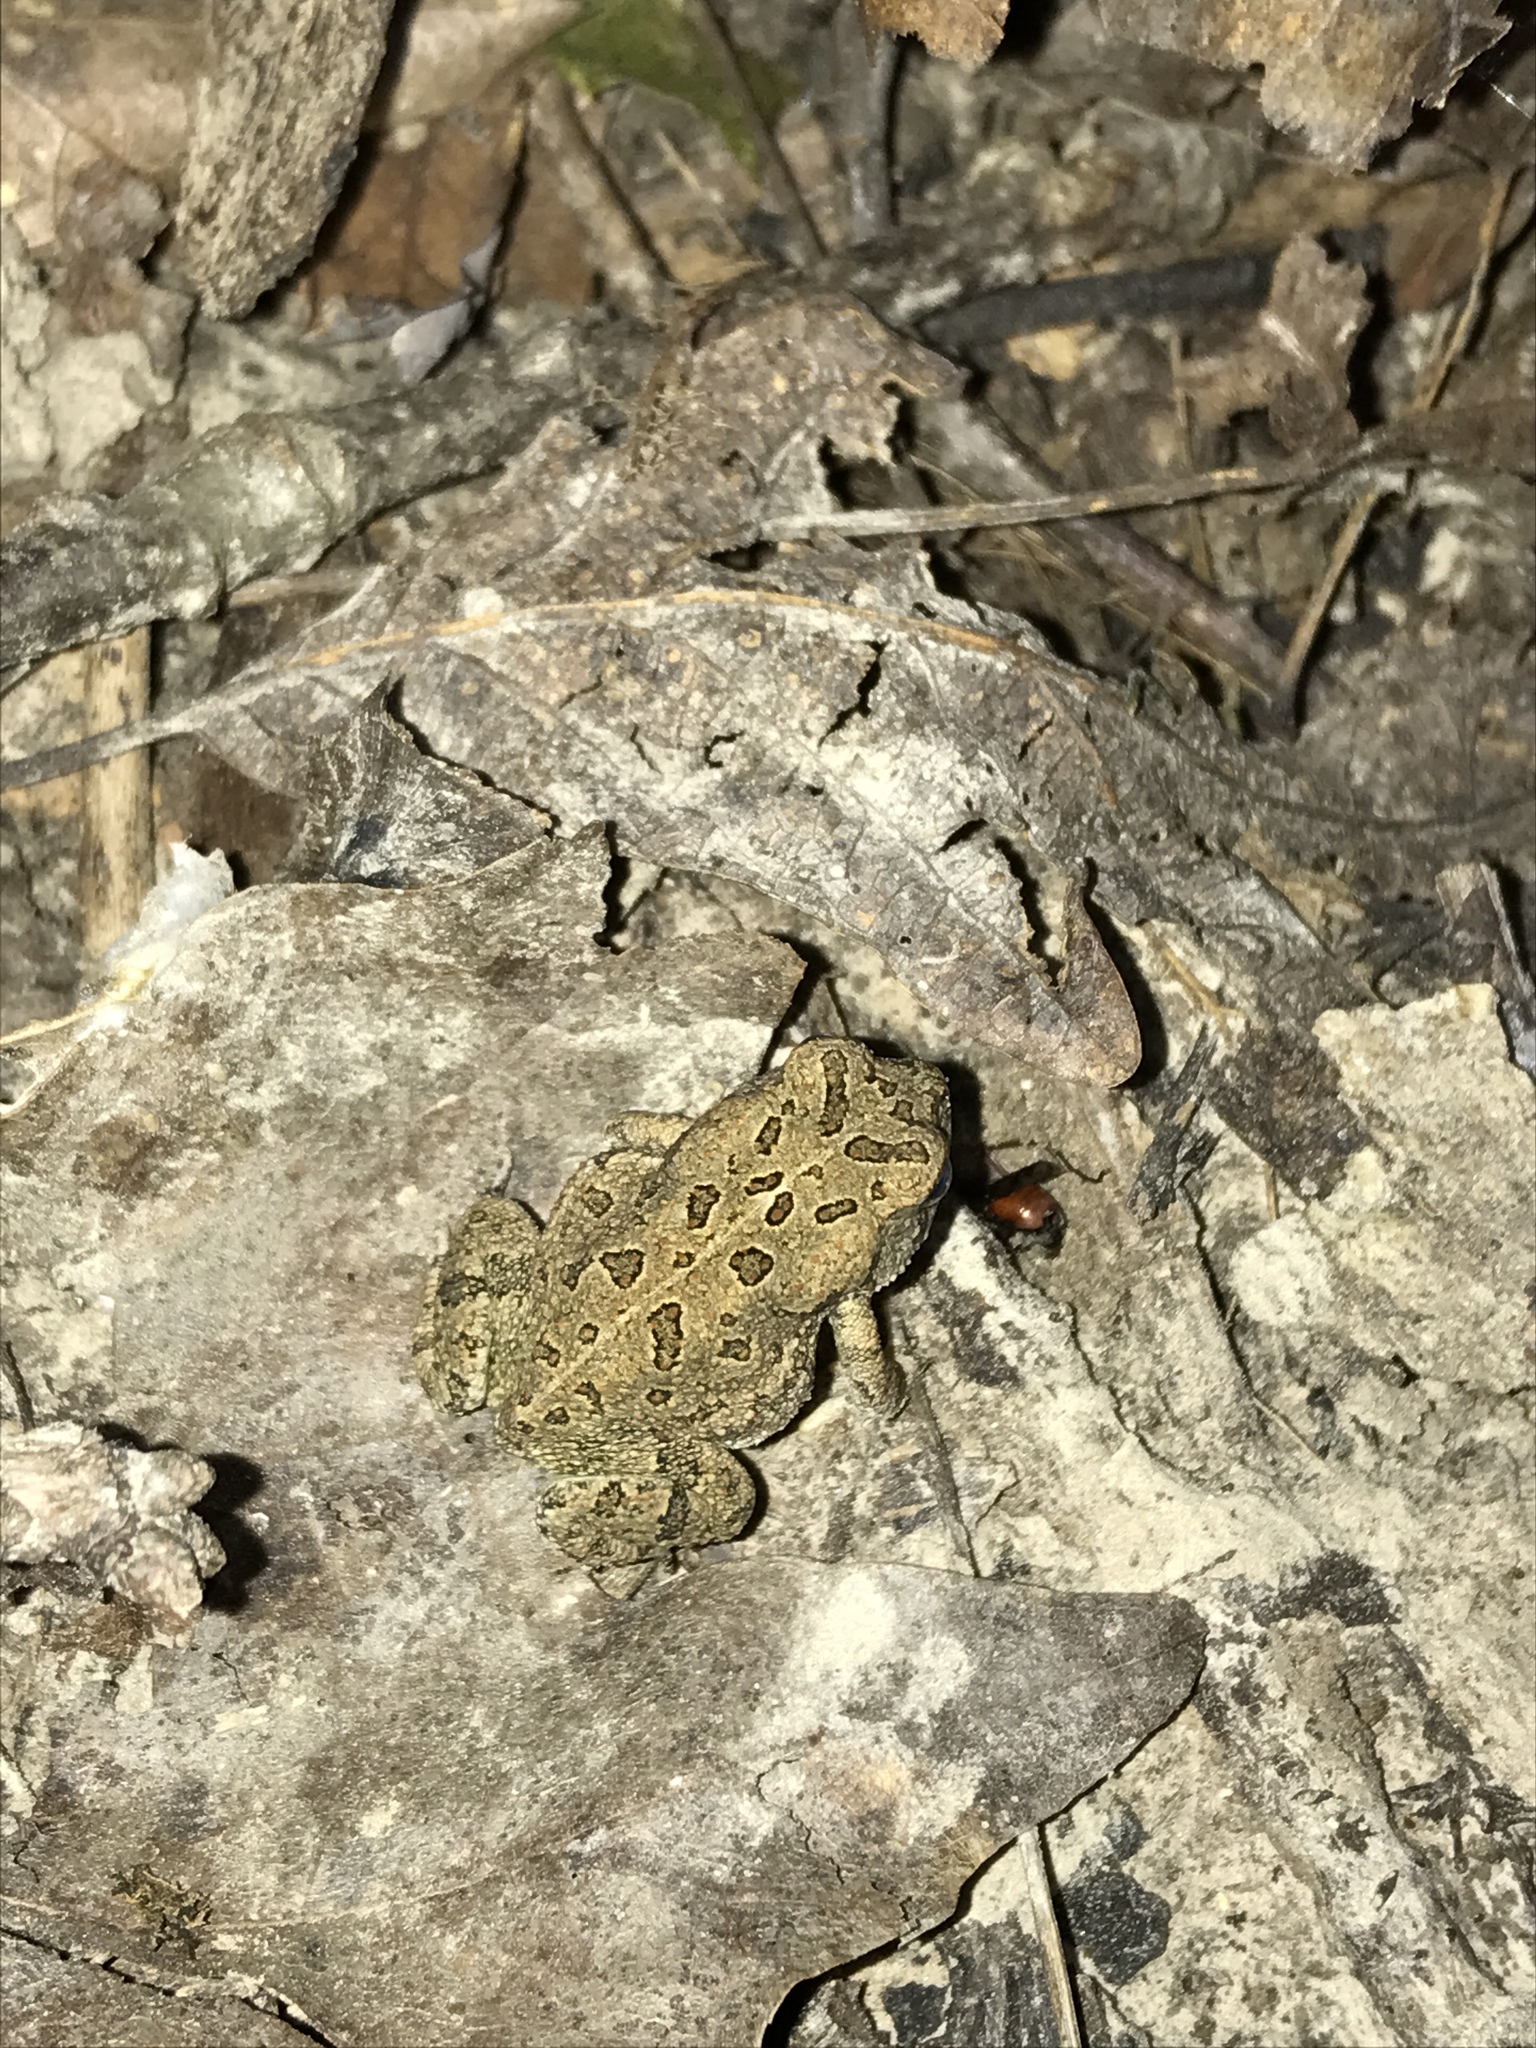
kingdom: Animalia
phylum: Chordata
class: Amphibia
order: Anura
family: Bufonidae
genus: Anaxyrus
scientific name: Anaxyrus fowleri
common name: Fowler's toad
